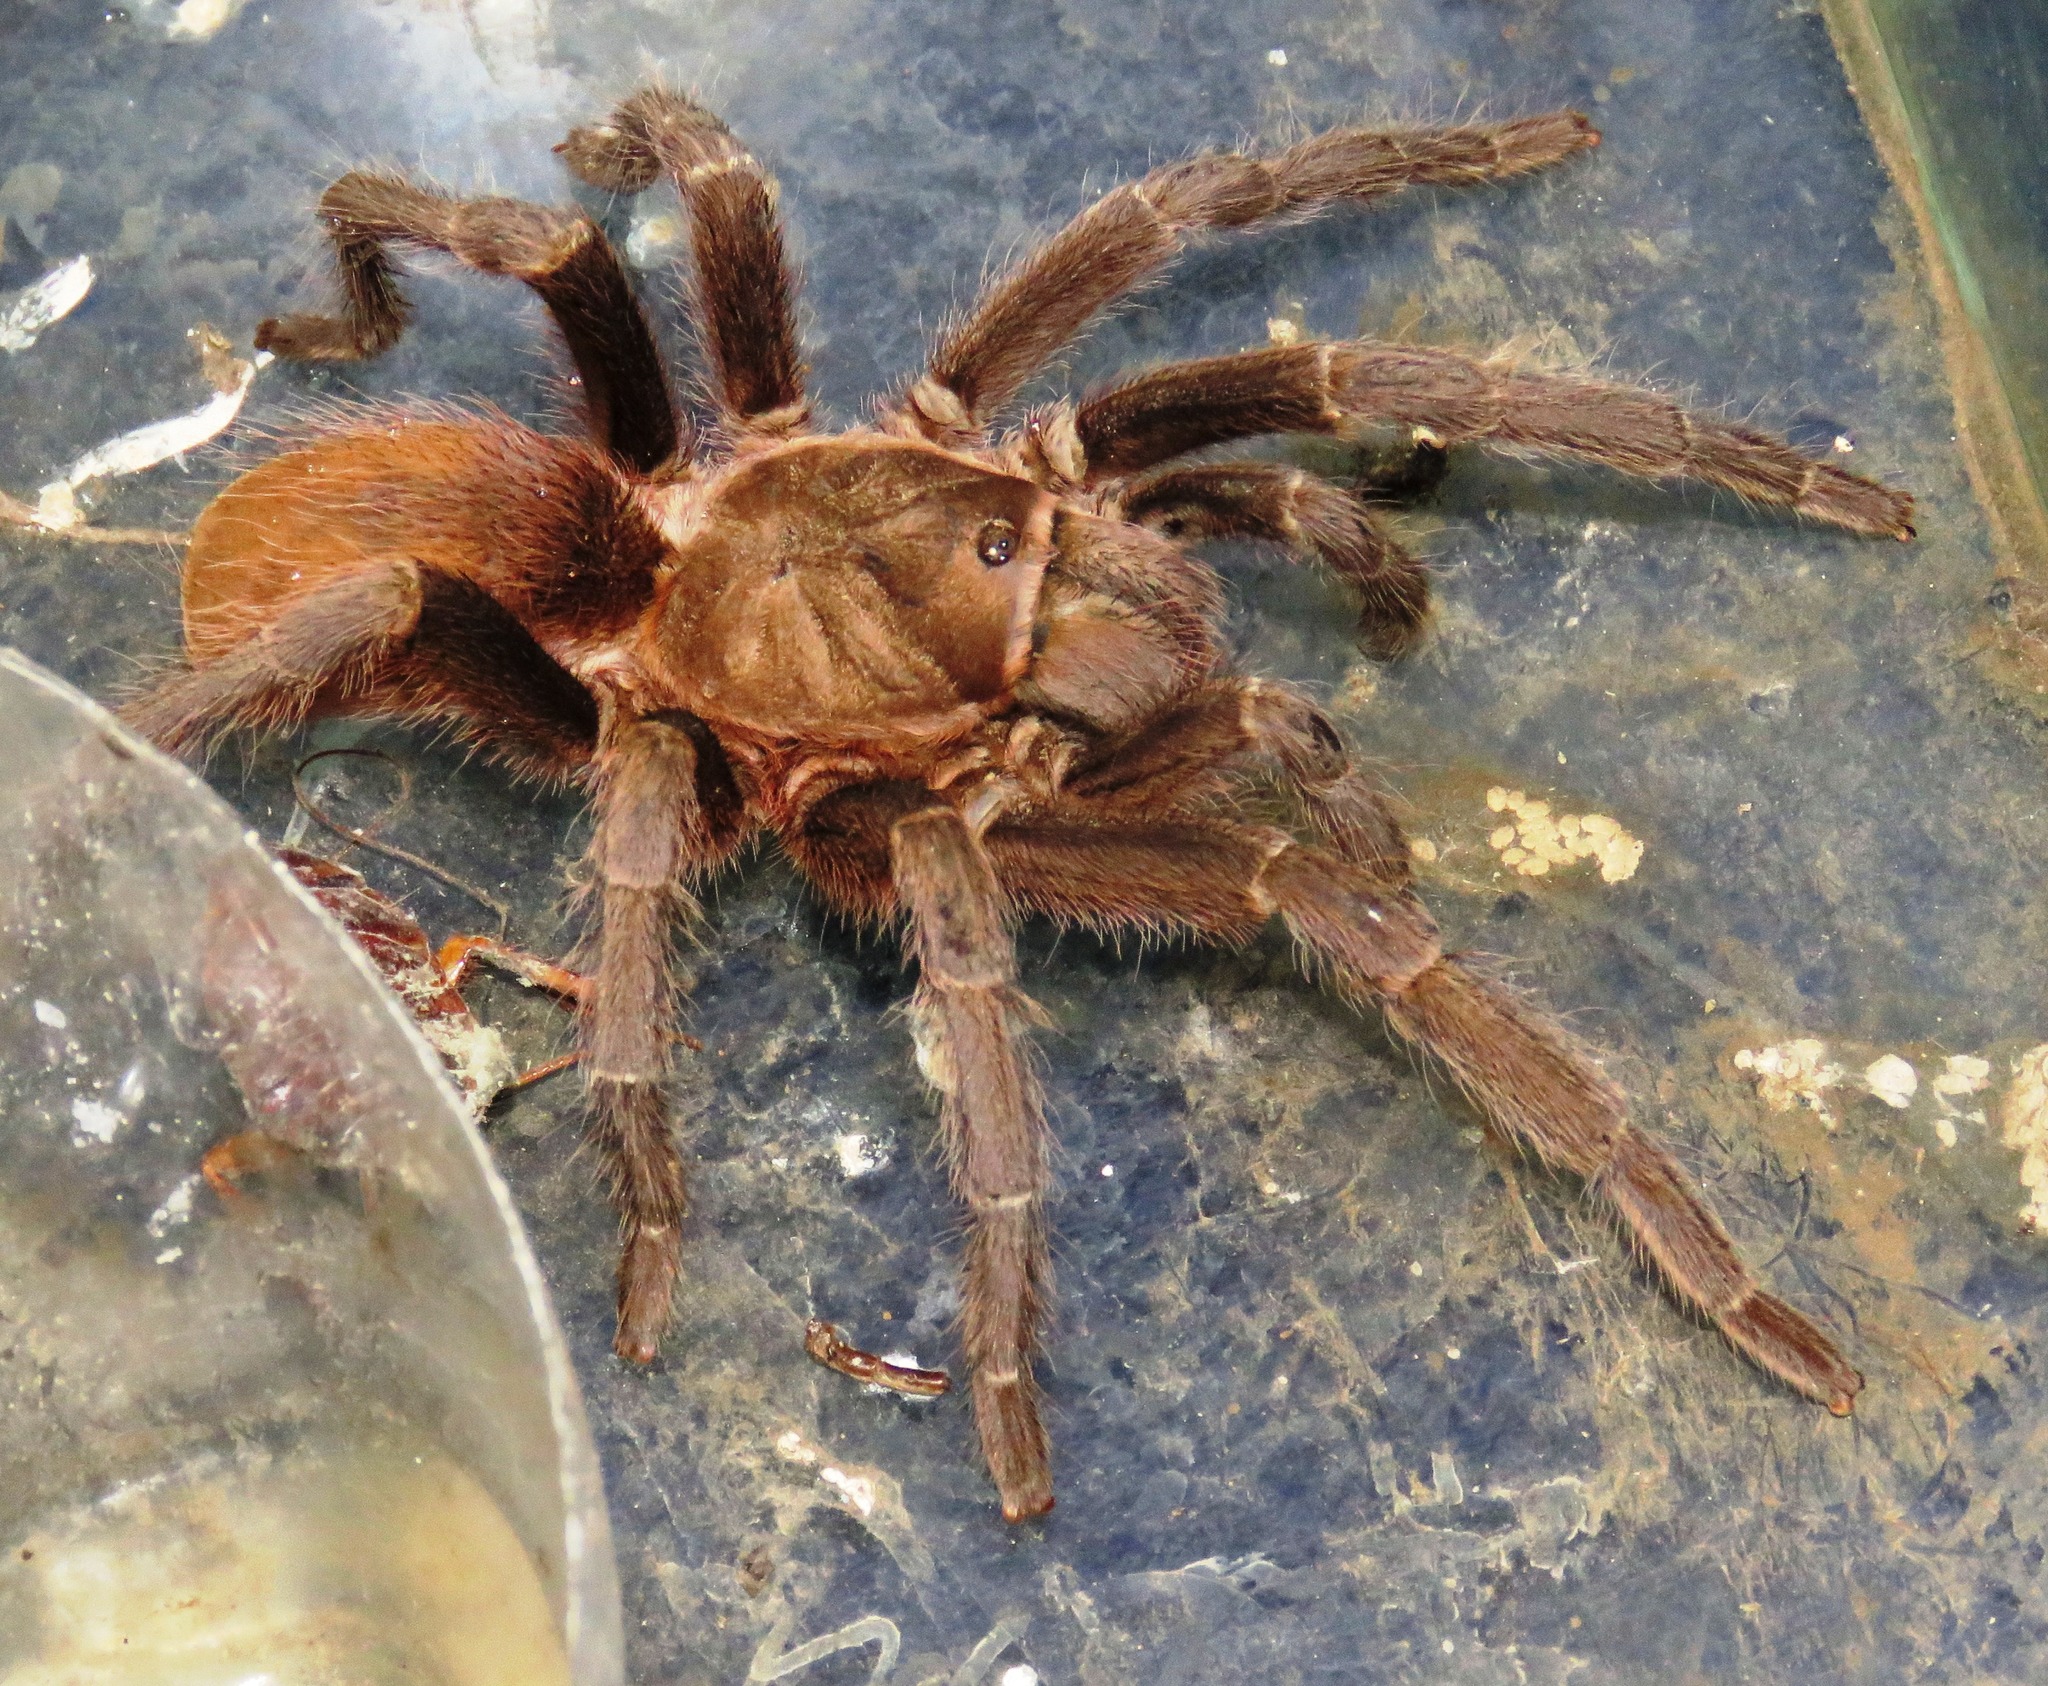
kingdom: Animalia
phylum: Arthropoda
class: Arachnida
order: Araneae
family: Theraphosidae
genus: Aphonopelma
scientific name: Aphonopelma crinirufum
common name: Tarantula spiders
